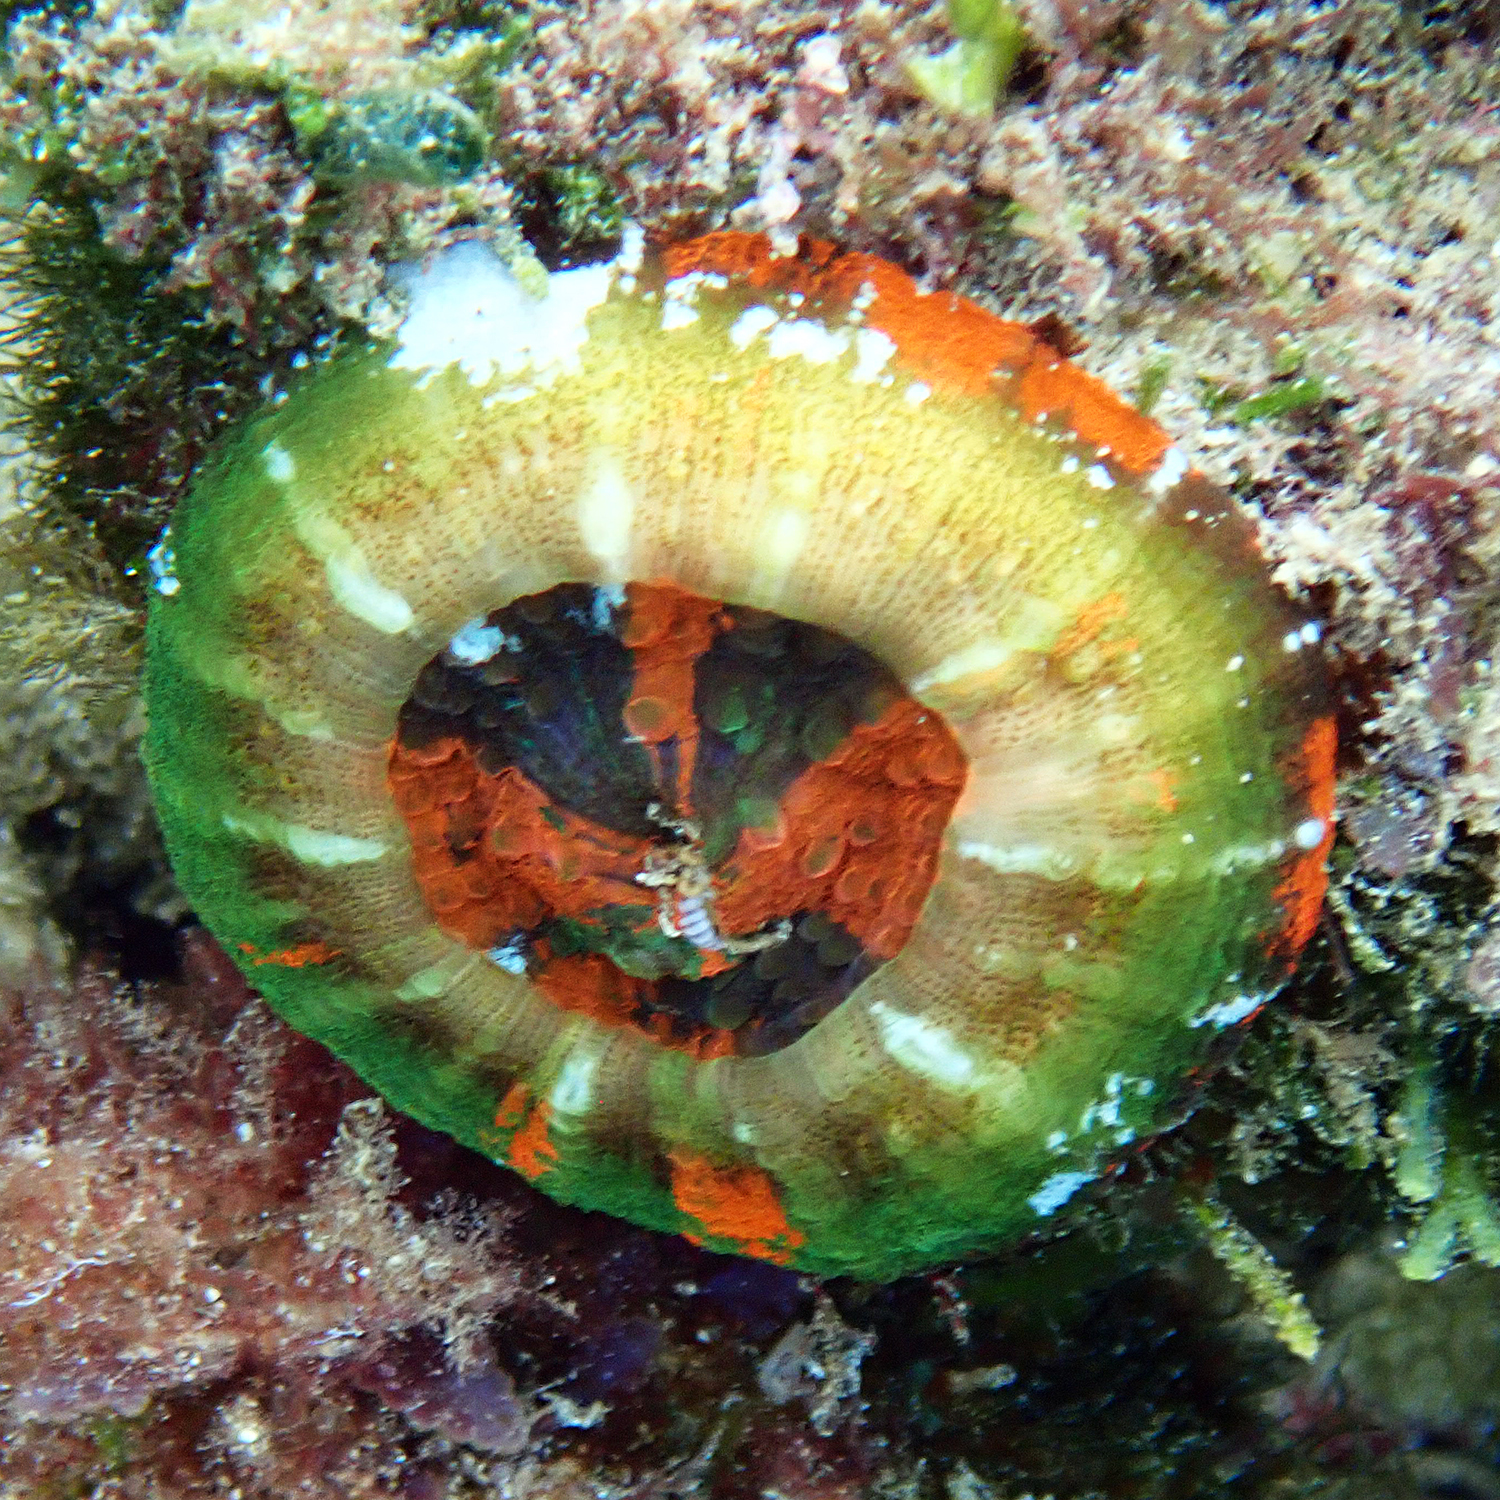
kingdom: Animalia
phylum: Cnidaria
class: Anthozoa
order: Scleractinia
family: Lobophylliidae
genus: Homophyllia
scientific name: Homophyllia australis
